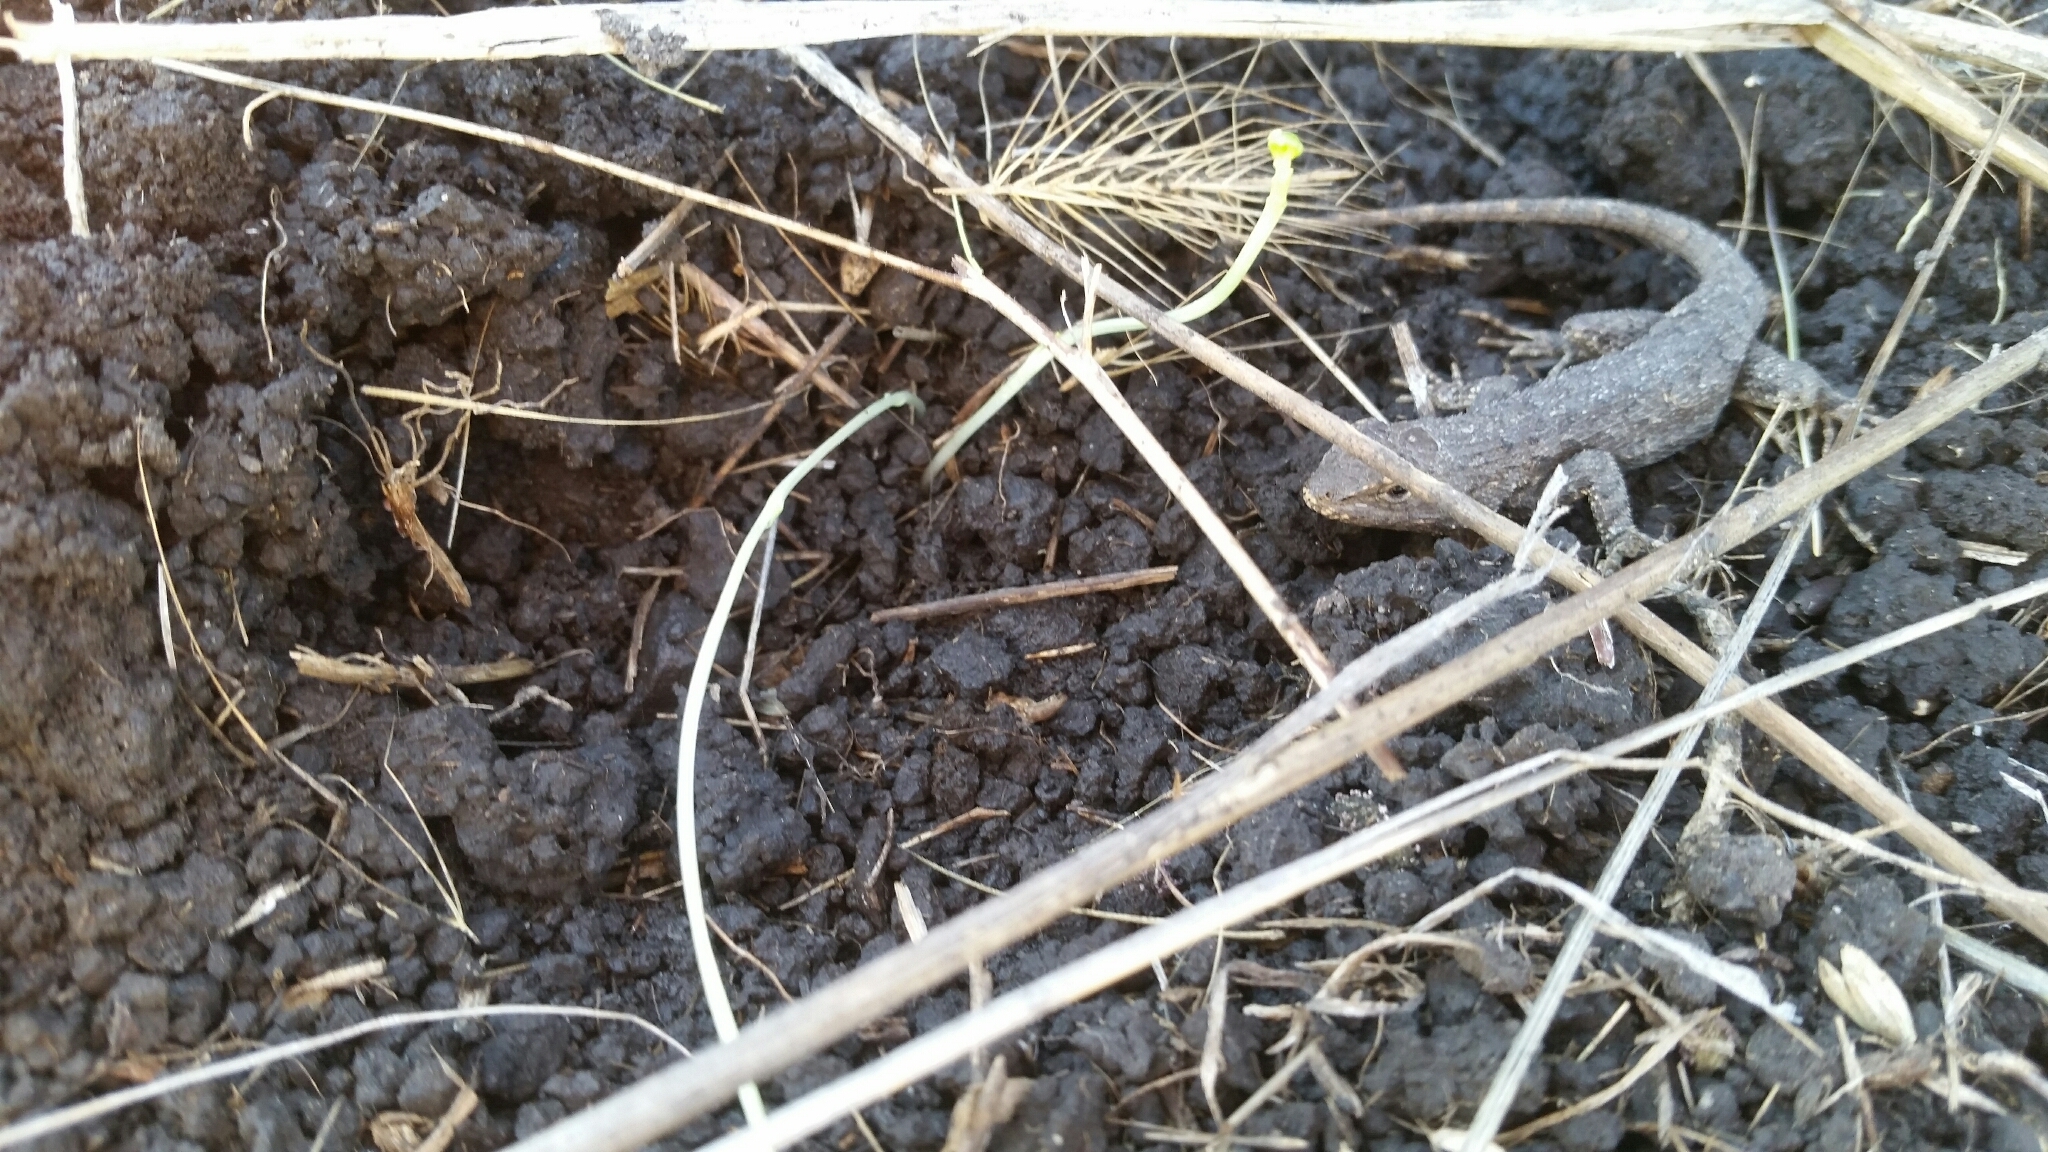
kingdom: Animalia
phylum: Chordata
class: Squamata
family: Phrynosomatidae
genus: Sceloporus
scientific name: Sceloporus occidentalis
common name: Western fence lizard
